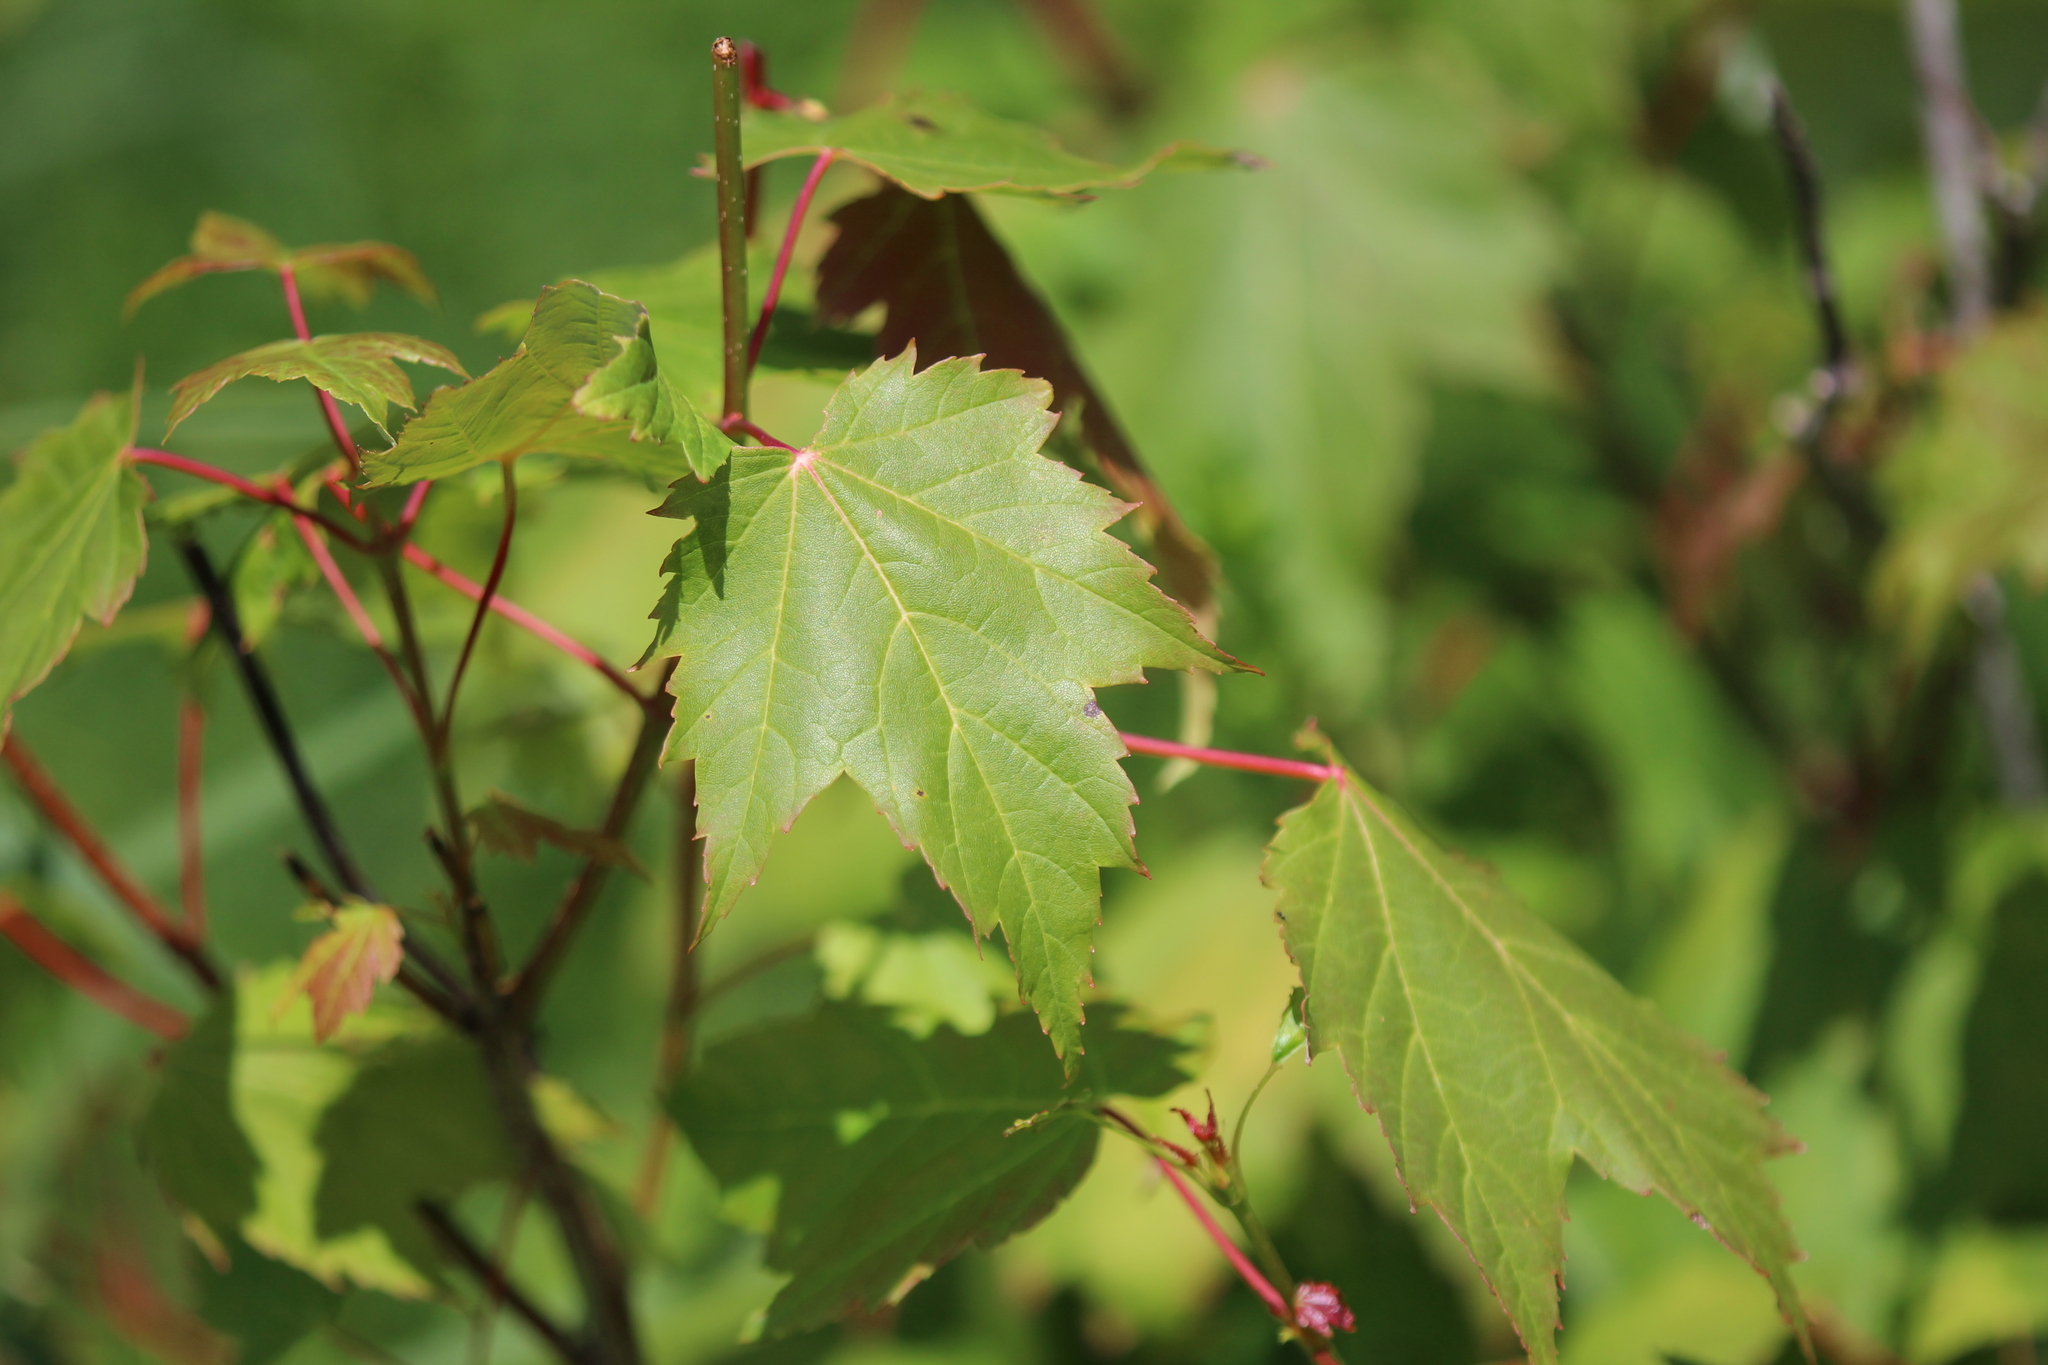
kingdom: Plantae
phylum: Tracheophyta
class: Magnoliopsida
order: Sapindales
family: Sapindaceae
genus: Acer
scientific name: Acer rubrum
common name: Red maple
